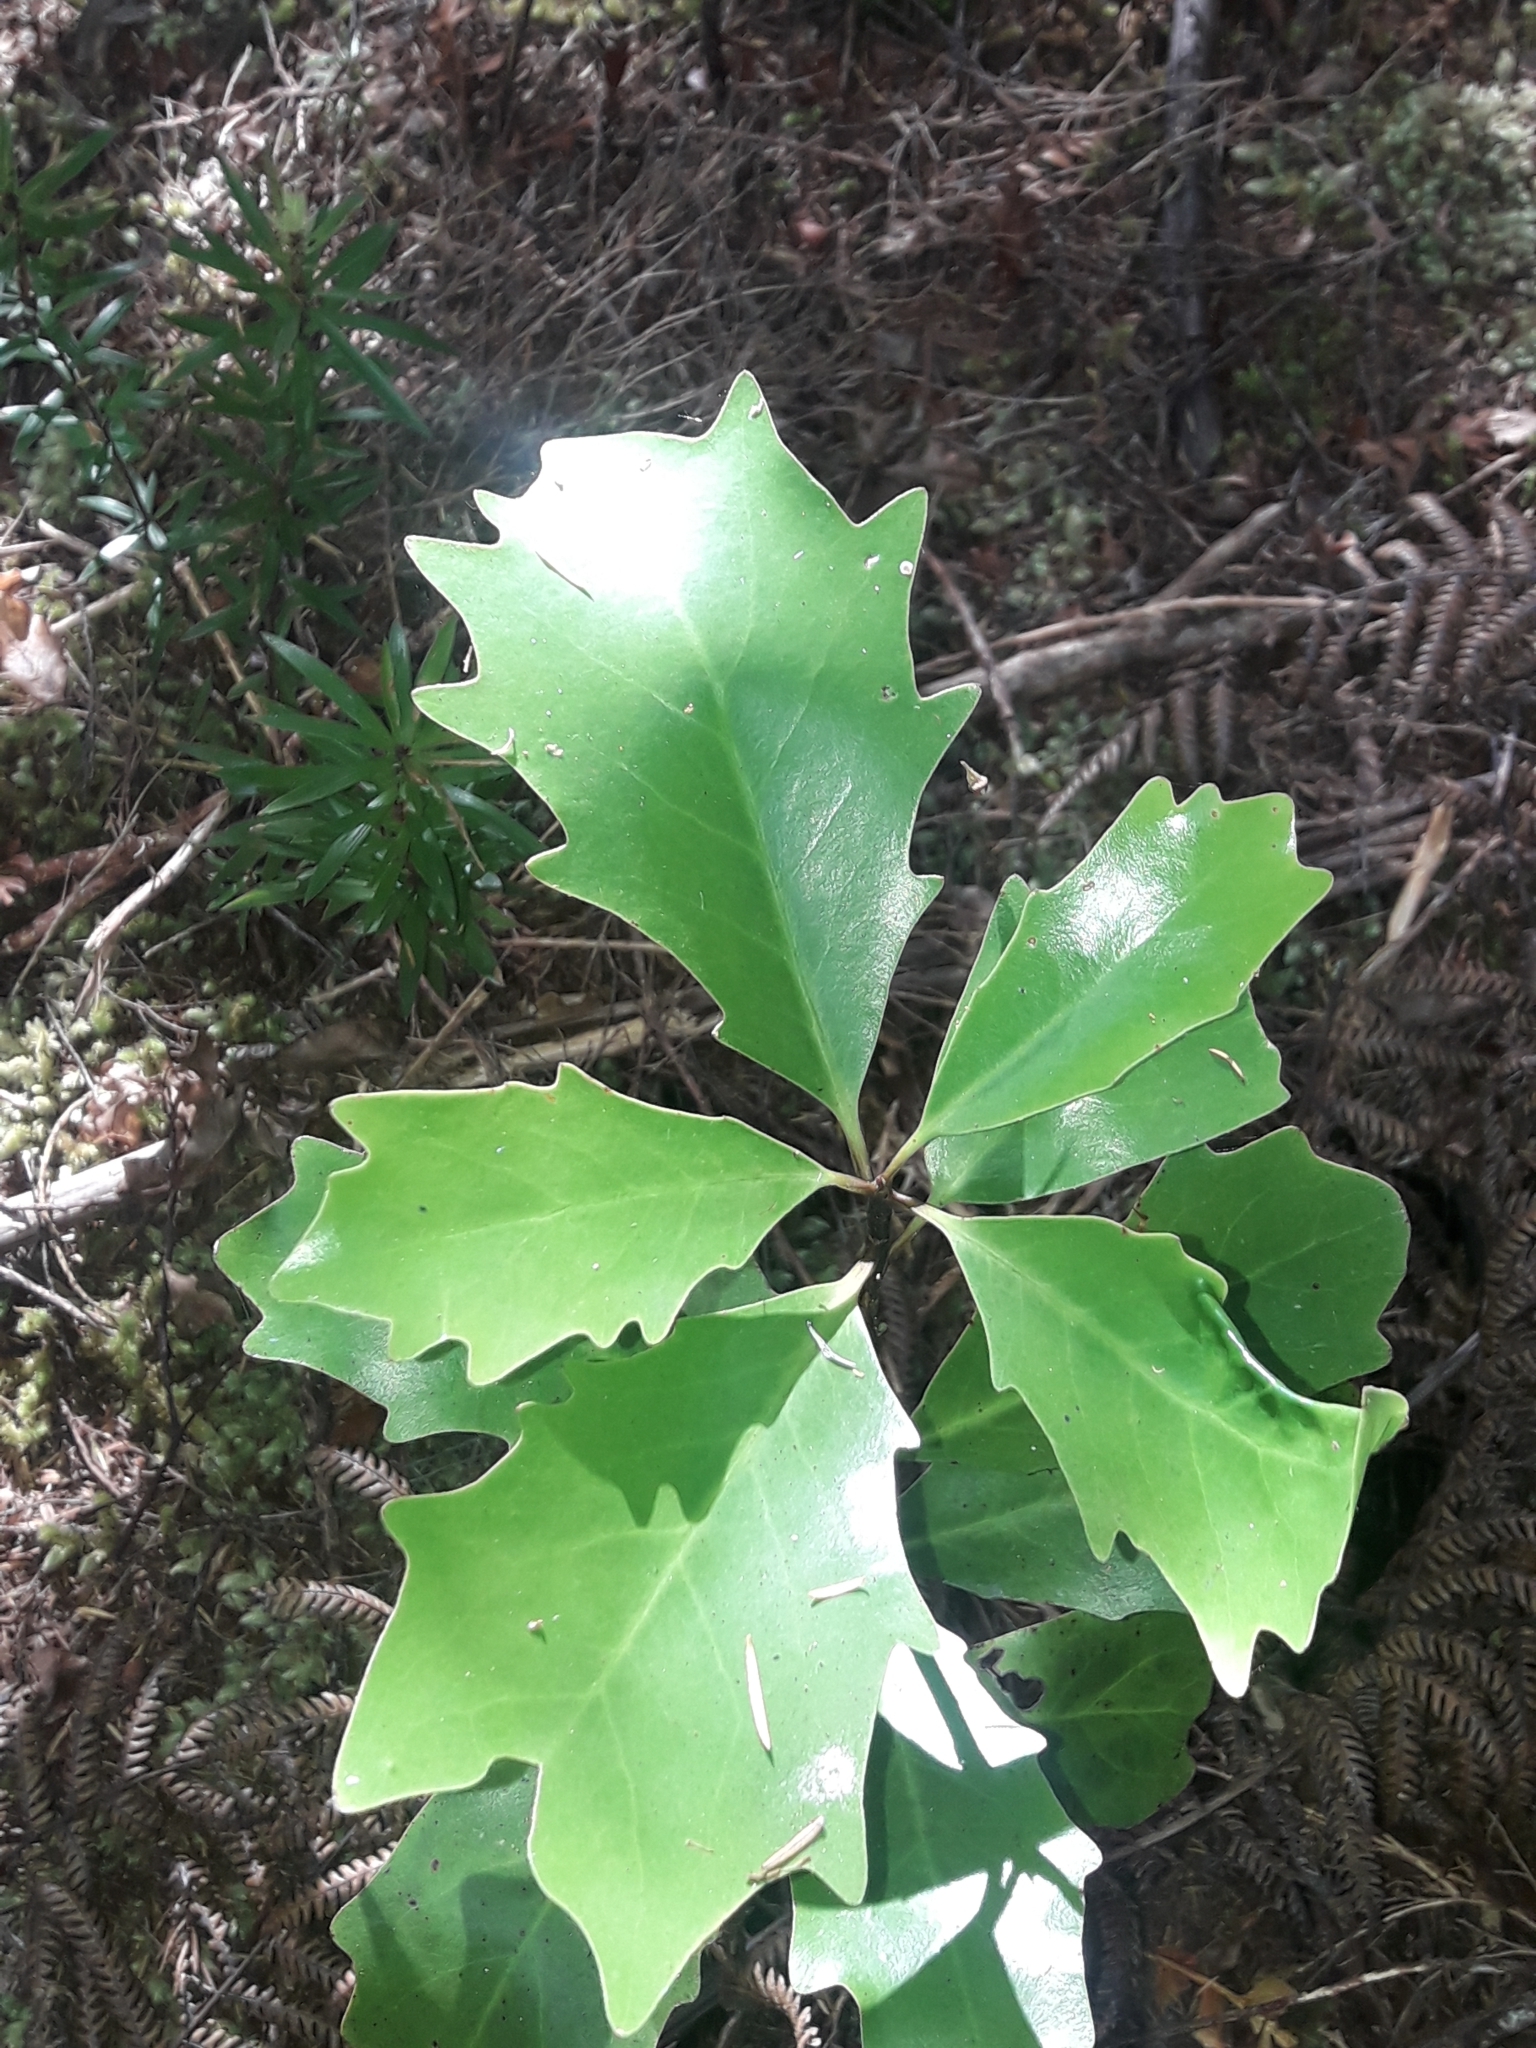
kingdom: Plantae
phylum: Tracheophyta
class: Magnoliopsida
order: Asterales
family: Alseuosmiaceae
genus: Alseuosmia
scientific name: Alseuosmia quercifolia
